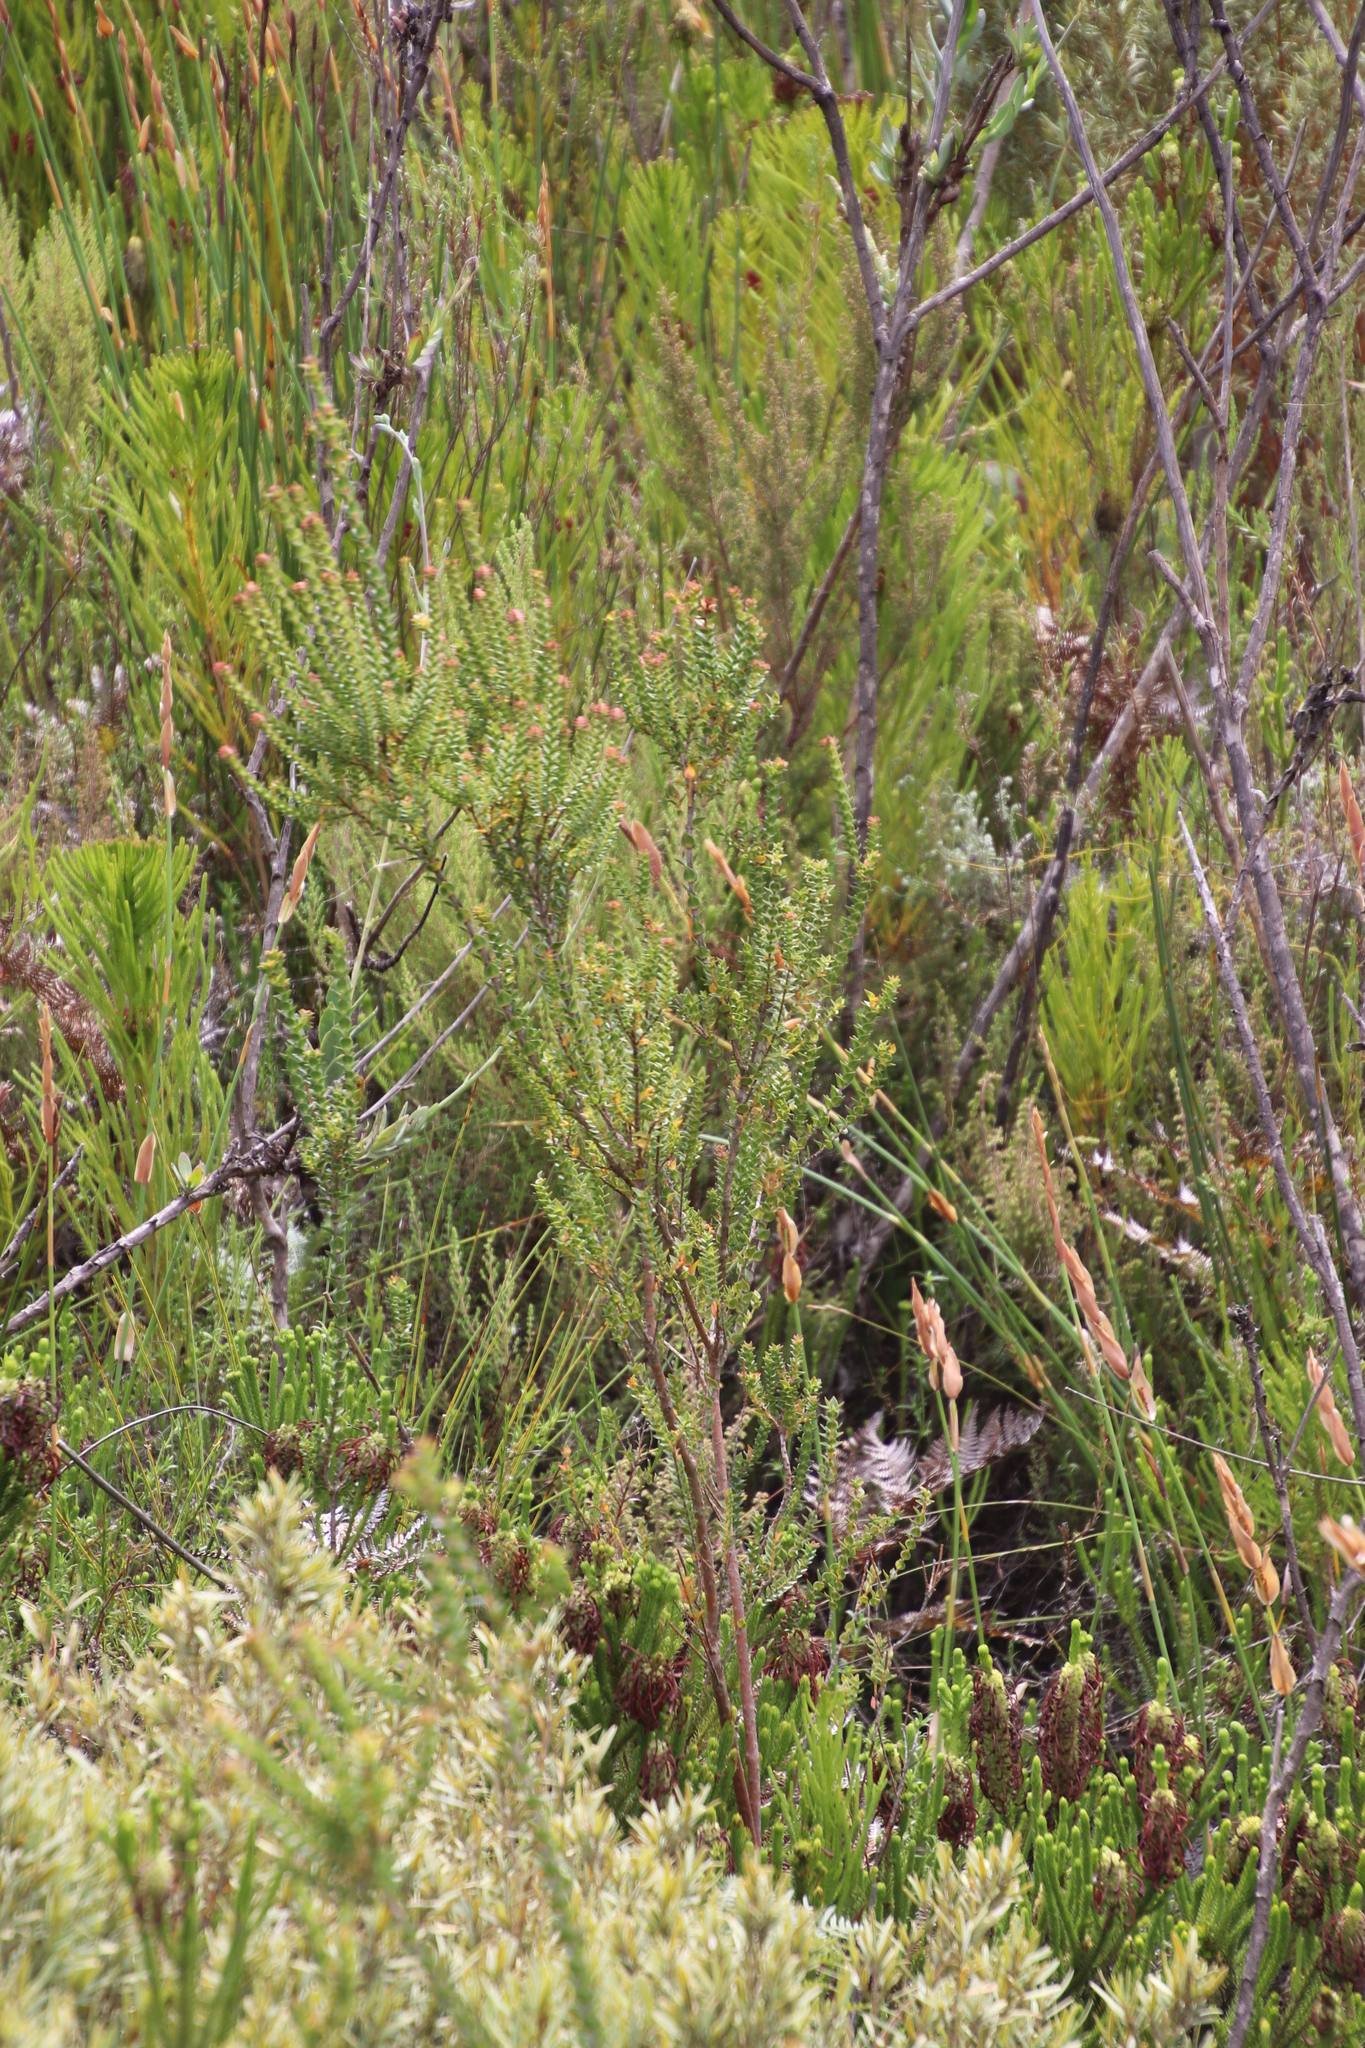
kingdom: Plantae
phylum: Tracheophyta
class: Magnoliopsida
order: Myrtales
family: Penaeaceae
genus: Penaea
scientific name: Penaea cneorum
